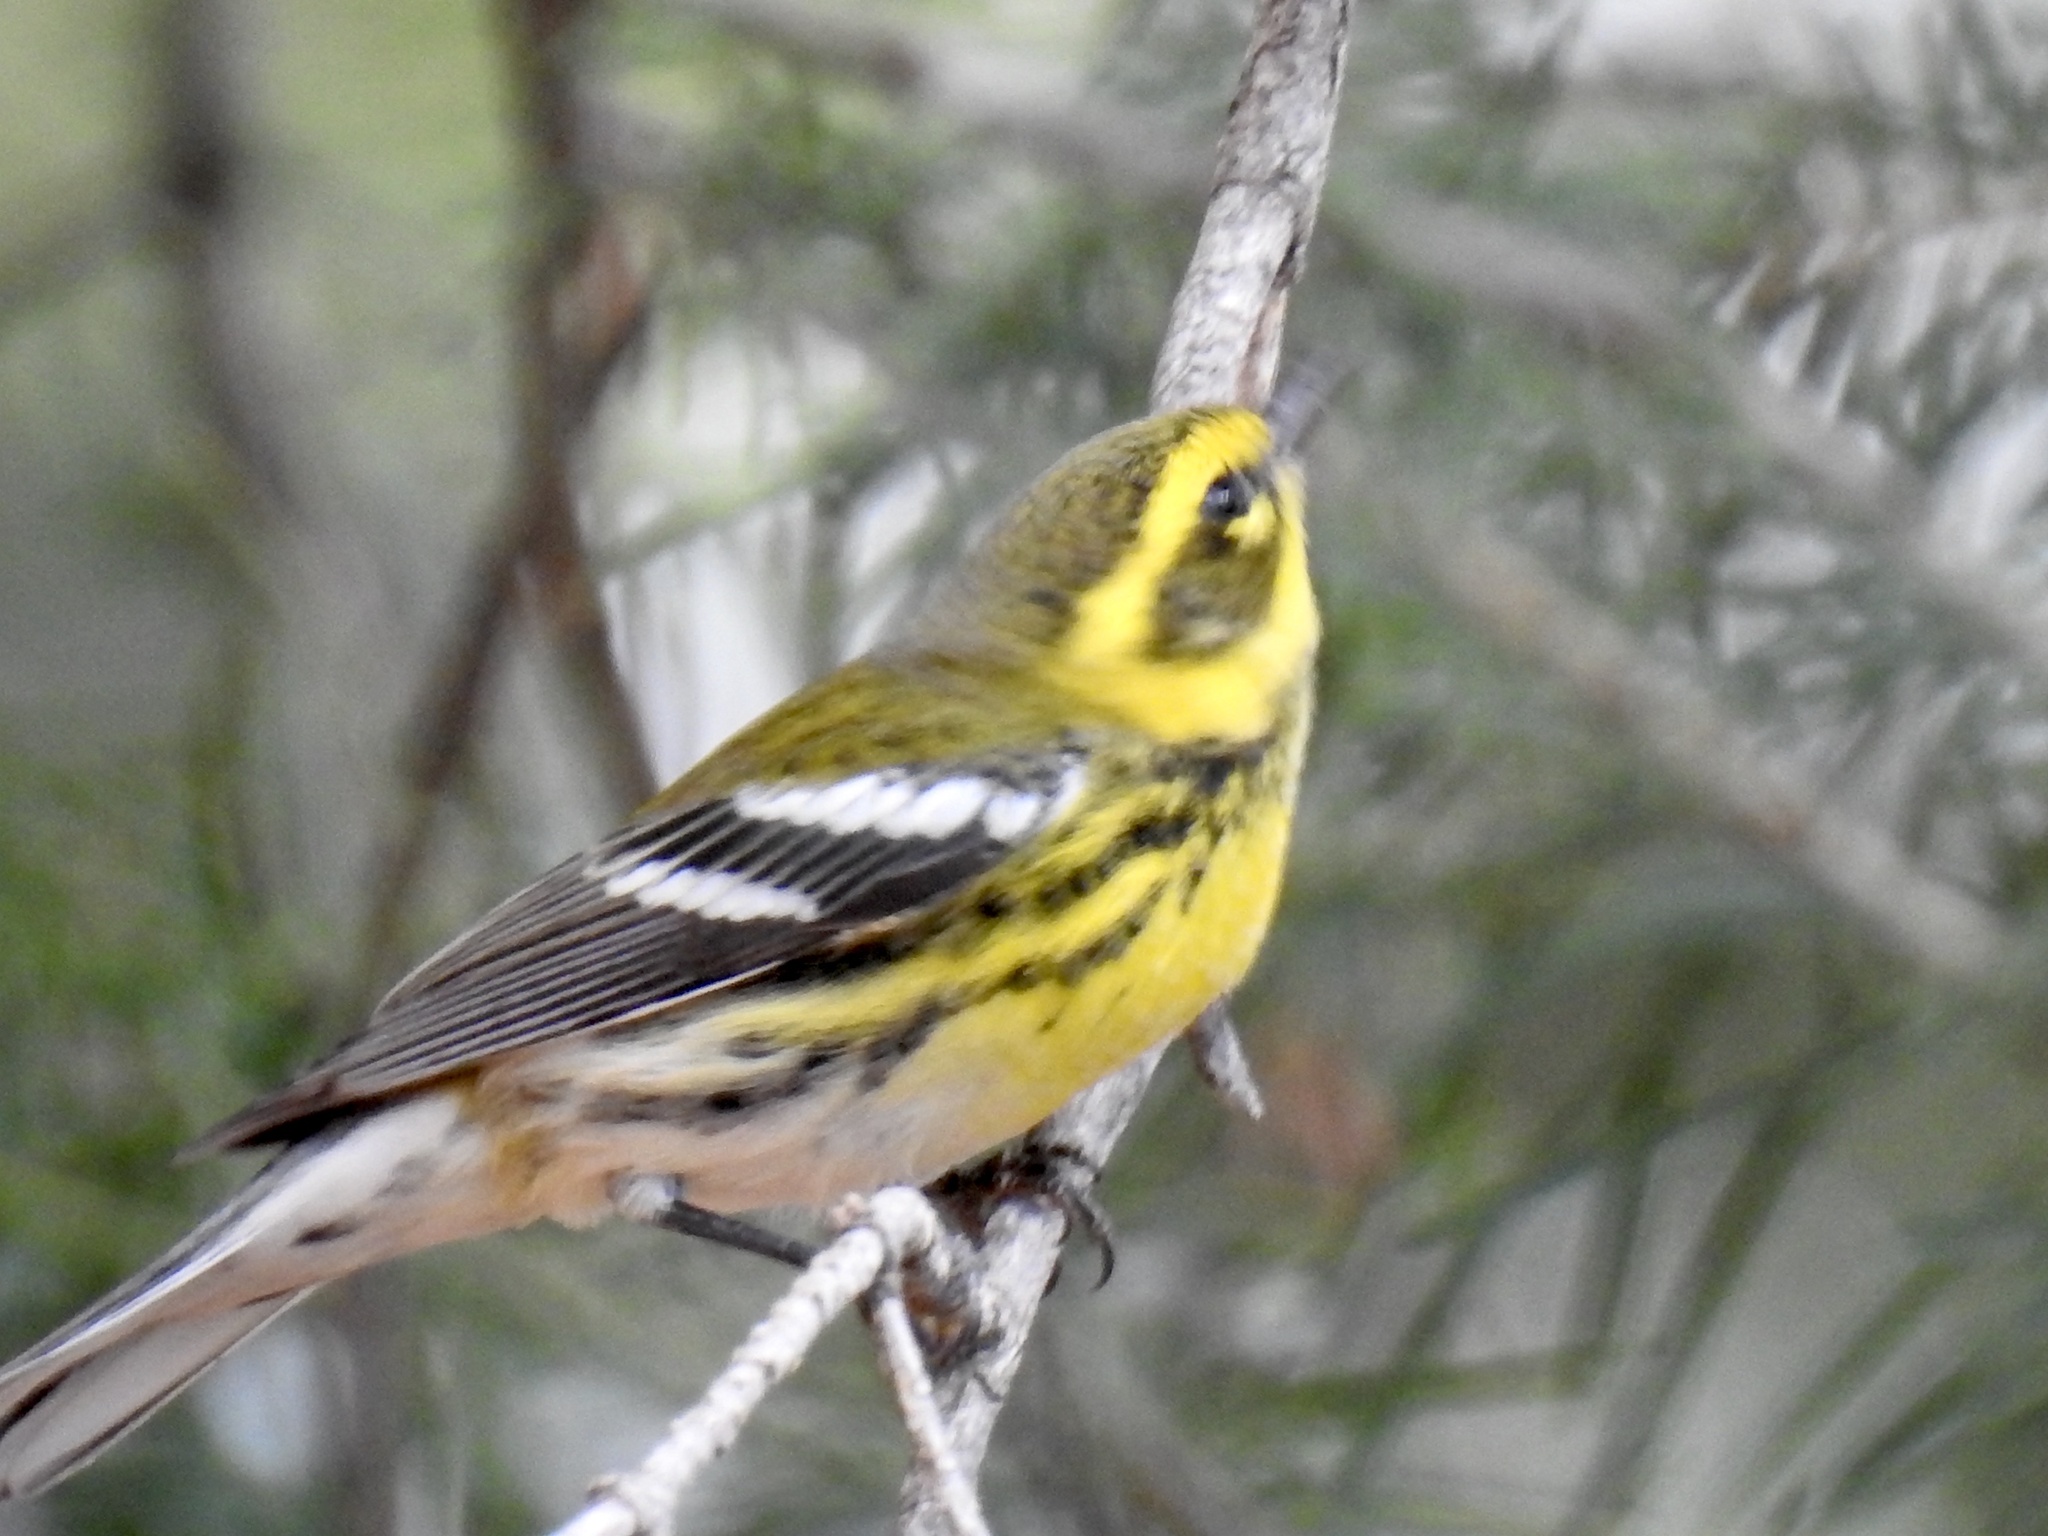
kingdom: Animalia
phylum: Chordata
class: Aves
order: Passeriformes
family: Parulidae
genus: Setophaga
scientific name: Setophaga townsendi
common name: Townsend's warbler
